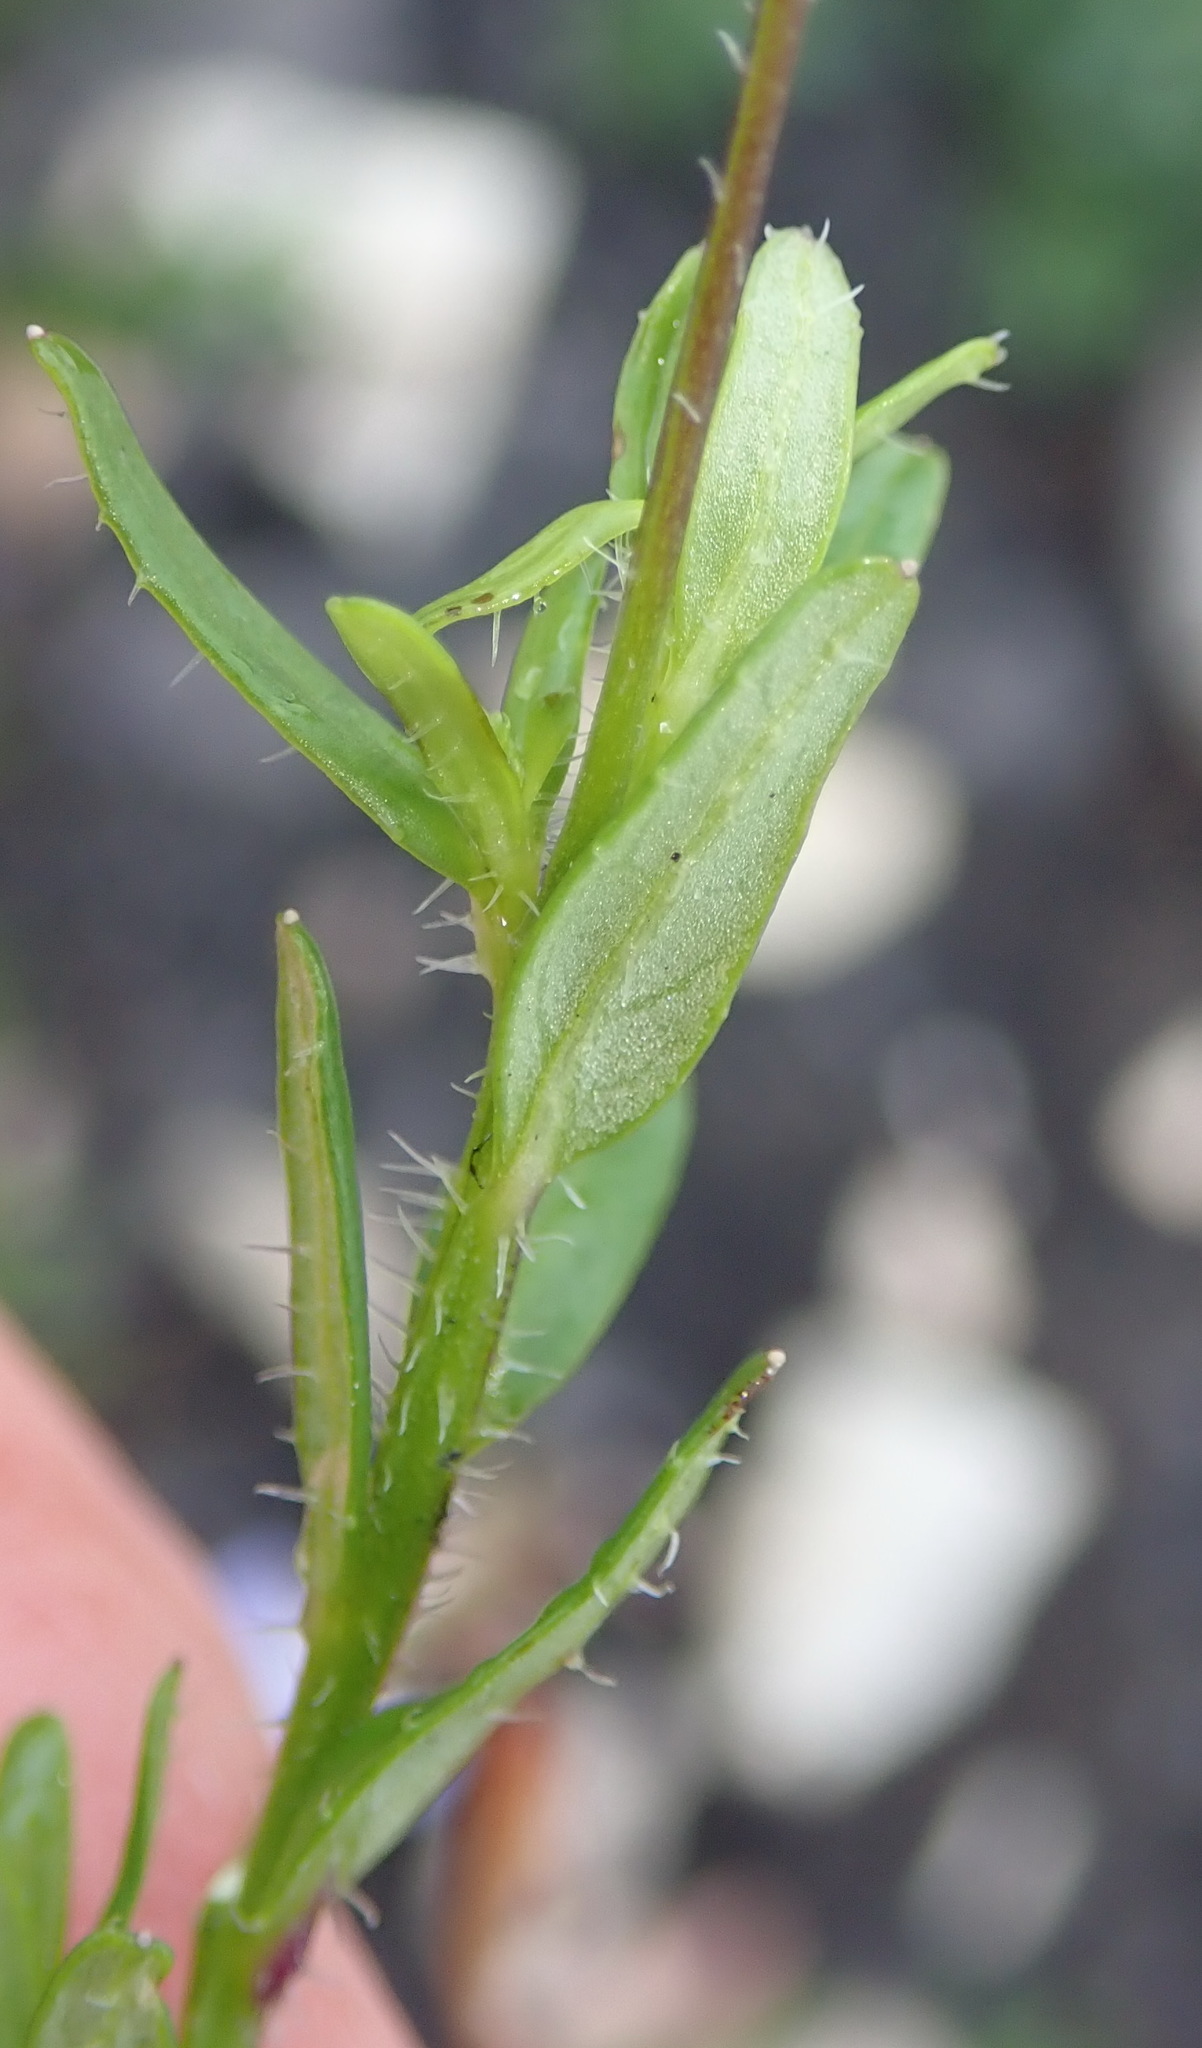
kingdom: Plantae
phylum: Tracheophyta
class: Magnoliopsida
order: Asterales
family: Campanulaceae
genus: Lobelia
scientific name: Lobelia neglecta
